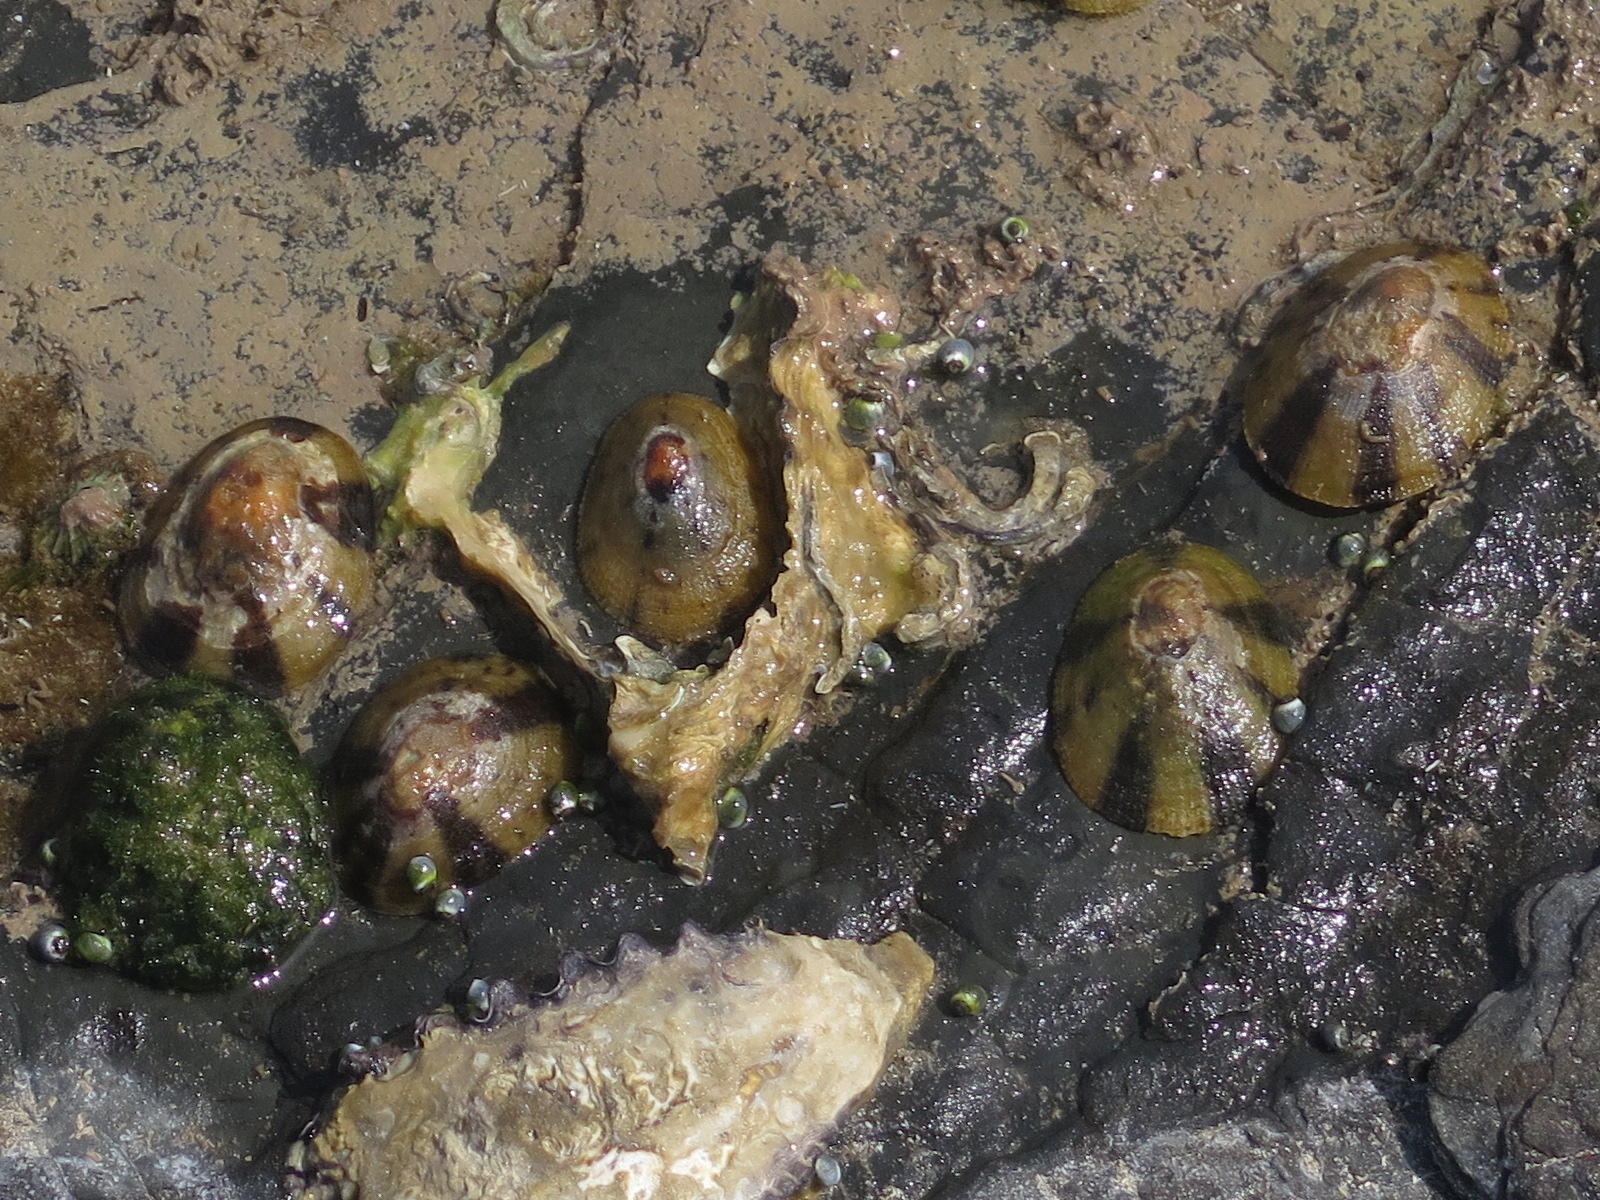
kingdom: Animalia
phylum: Mollusca
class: Gastropoda
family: Nacellidae
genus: Cellana
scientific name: Cellana capensis
